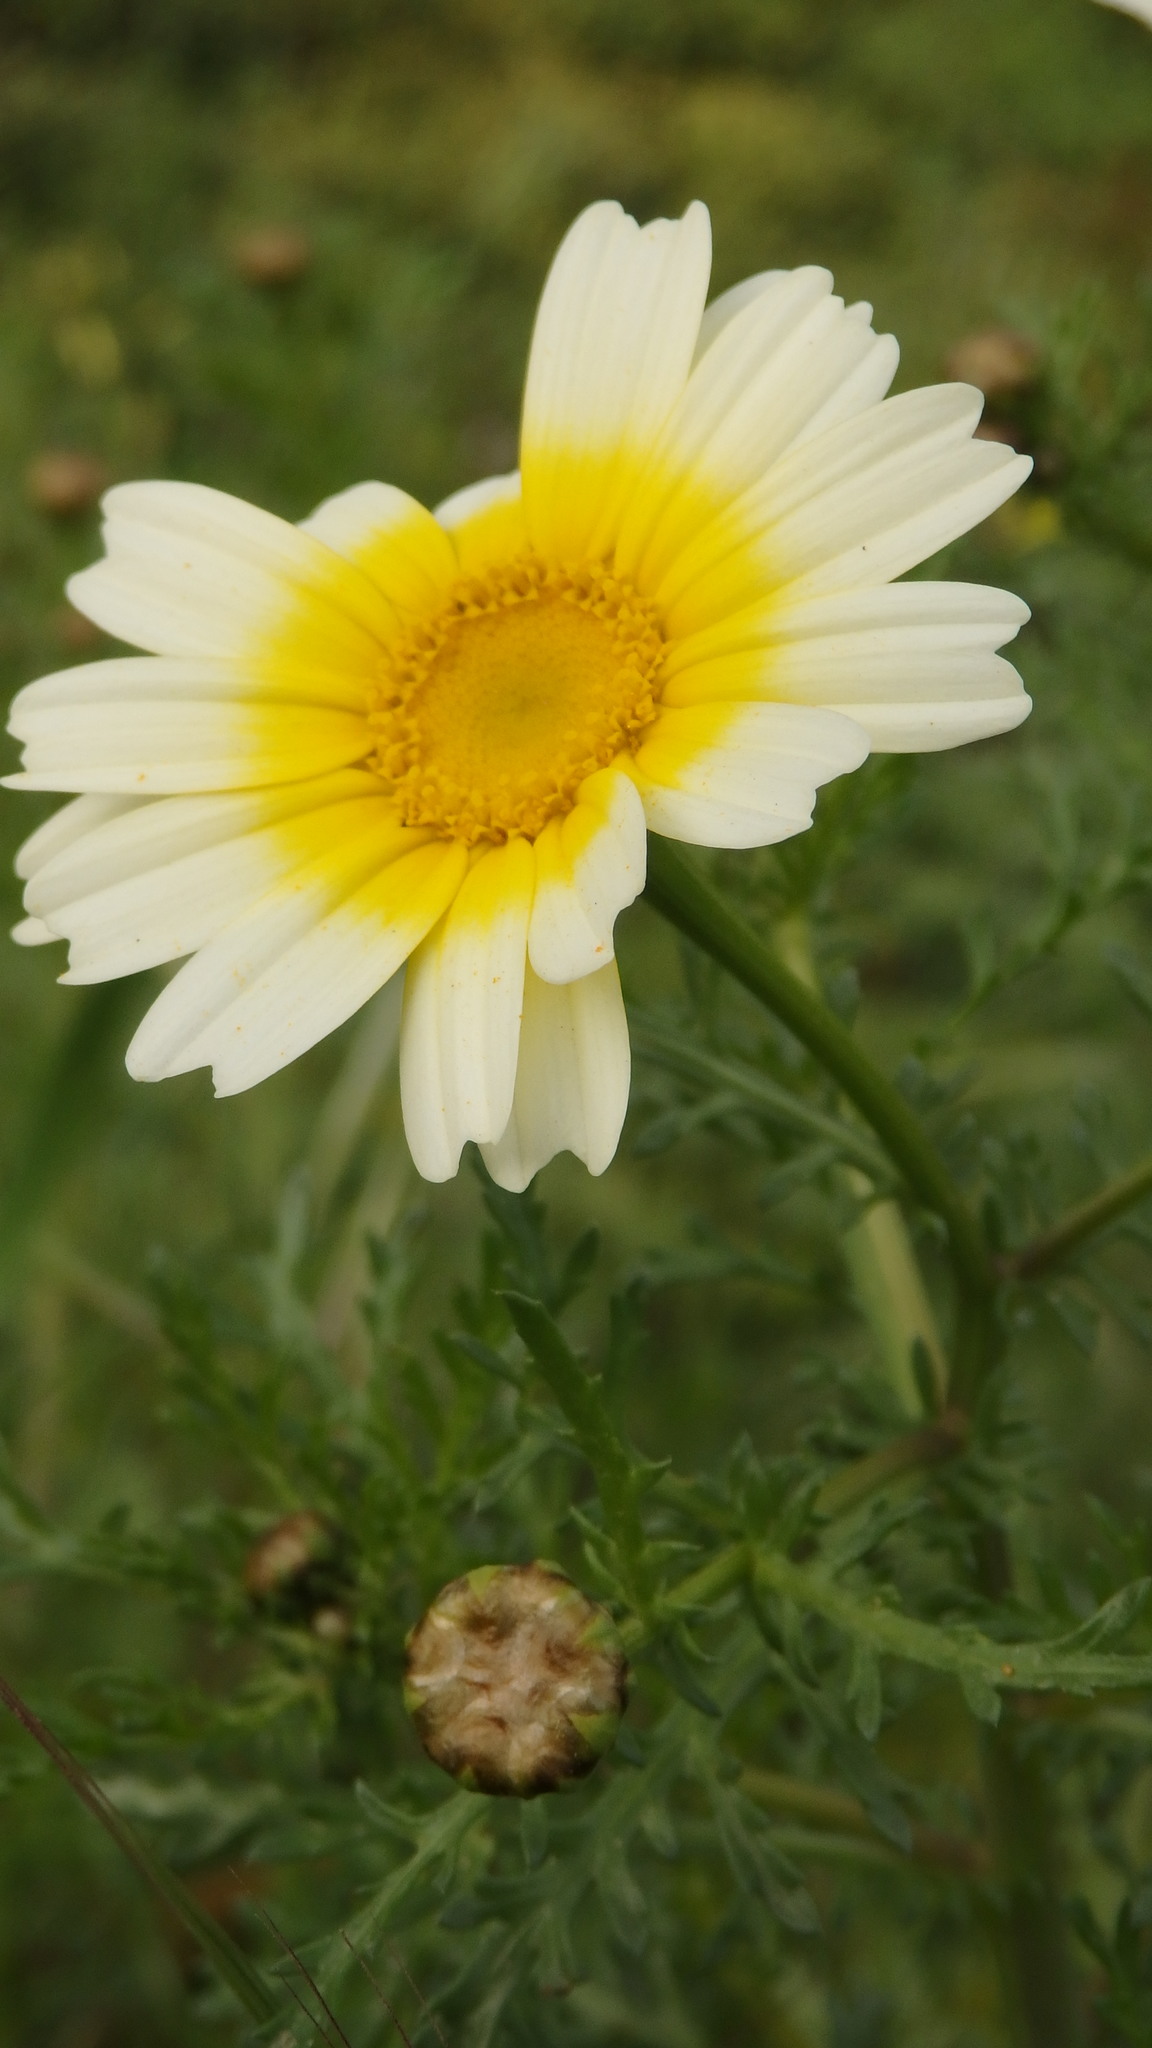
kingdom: Plantae
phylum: Tracheophyta
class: Magnoliopsida
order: Asterales
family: Asteraceae
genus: Glebionis
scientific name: Glebionis coronaria
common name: Crowndaisy
